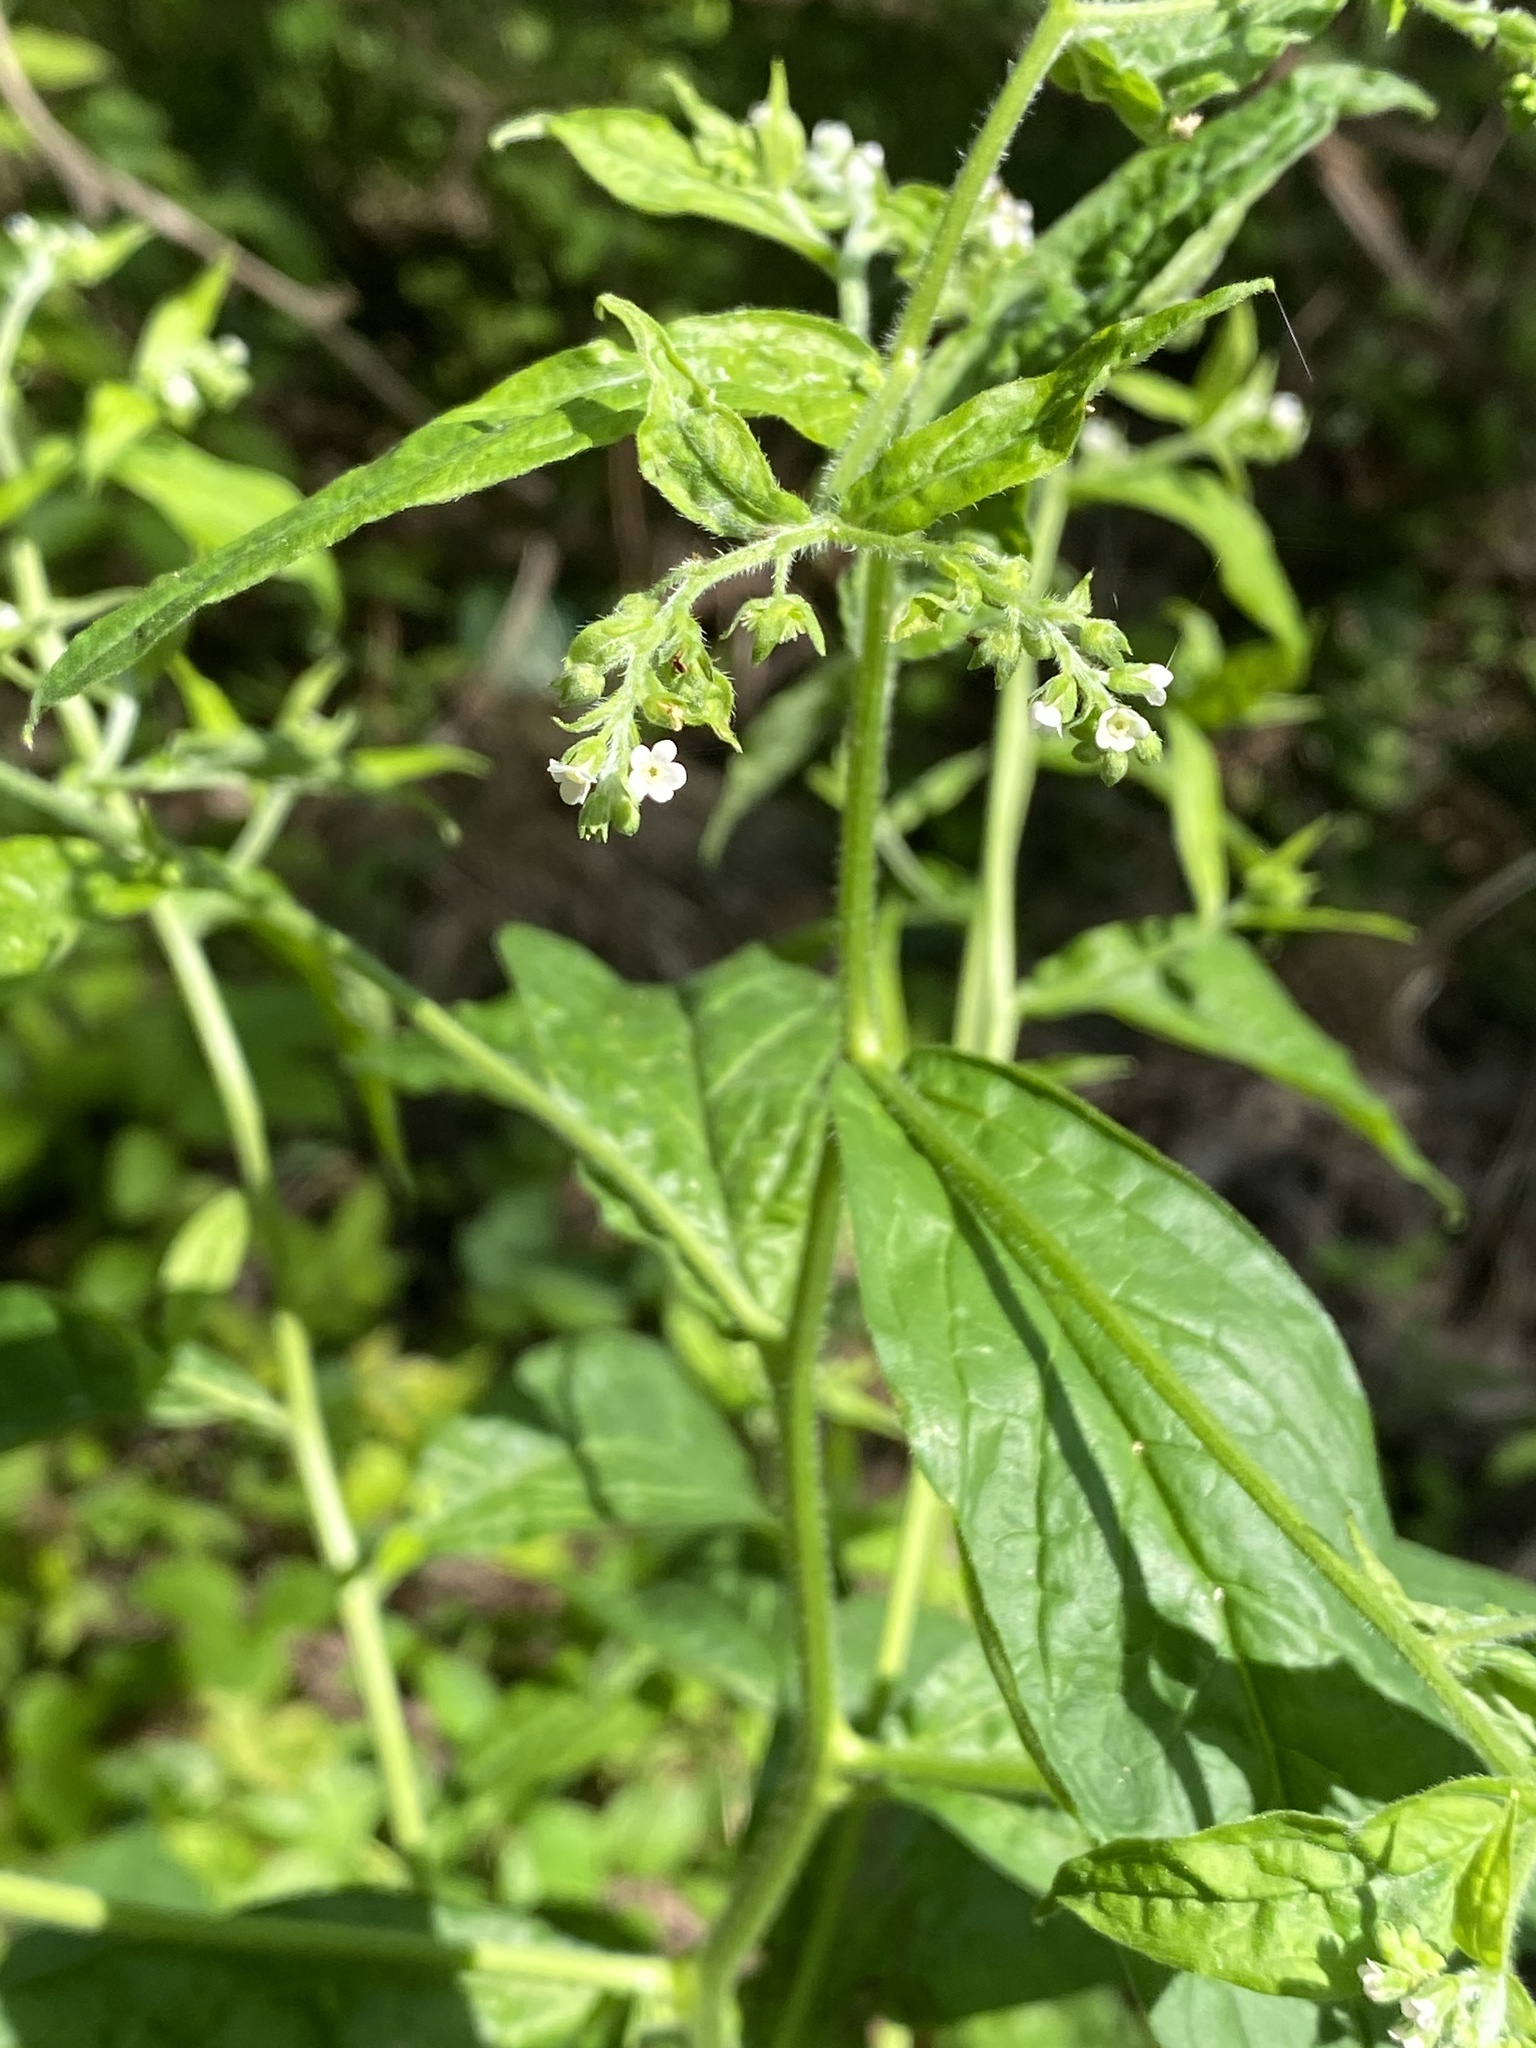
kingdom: Plantae
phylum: Tracheophyta
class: Magnoliopsida
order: Boraginales
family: Boraginaceae
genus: Hackelia
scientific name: Hackelia virginiana
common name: Beggar's-lice
